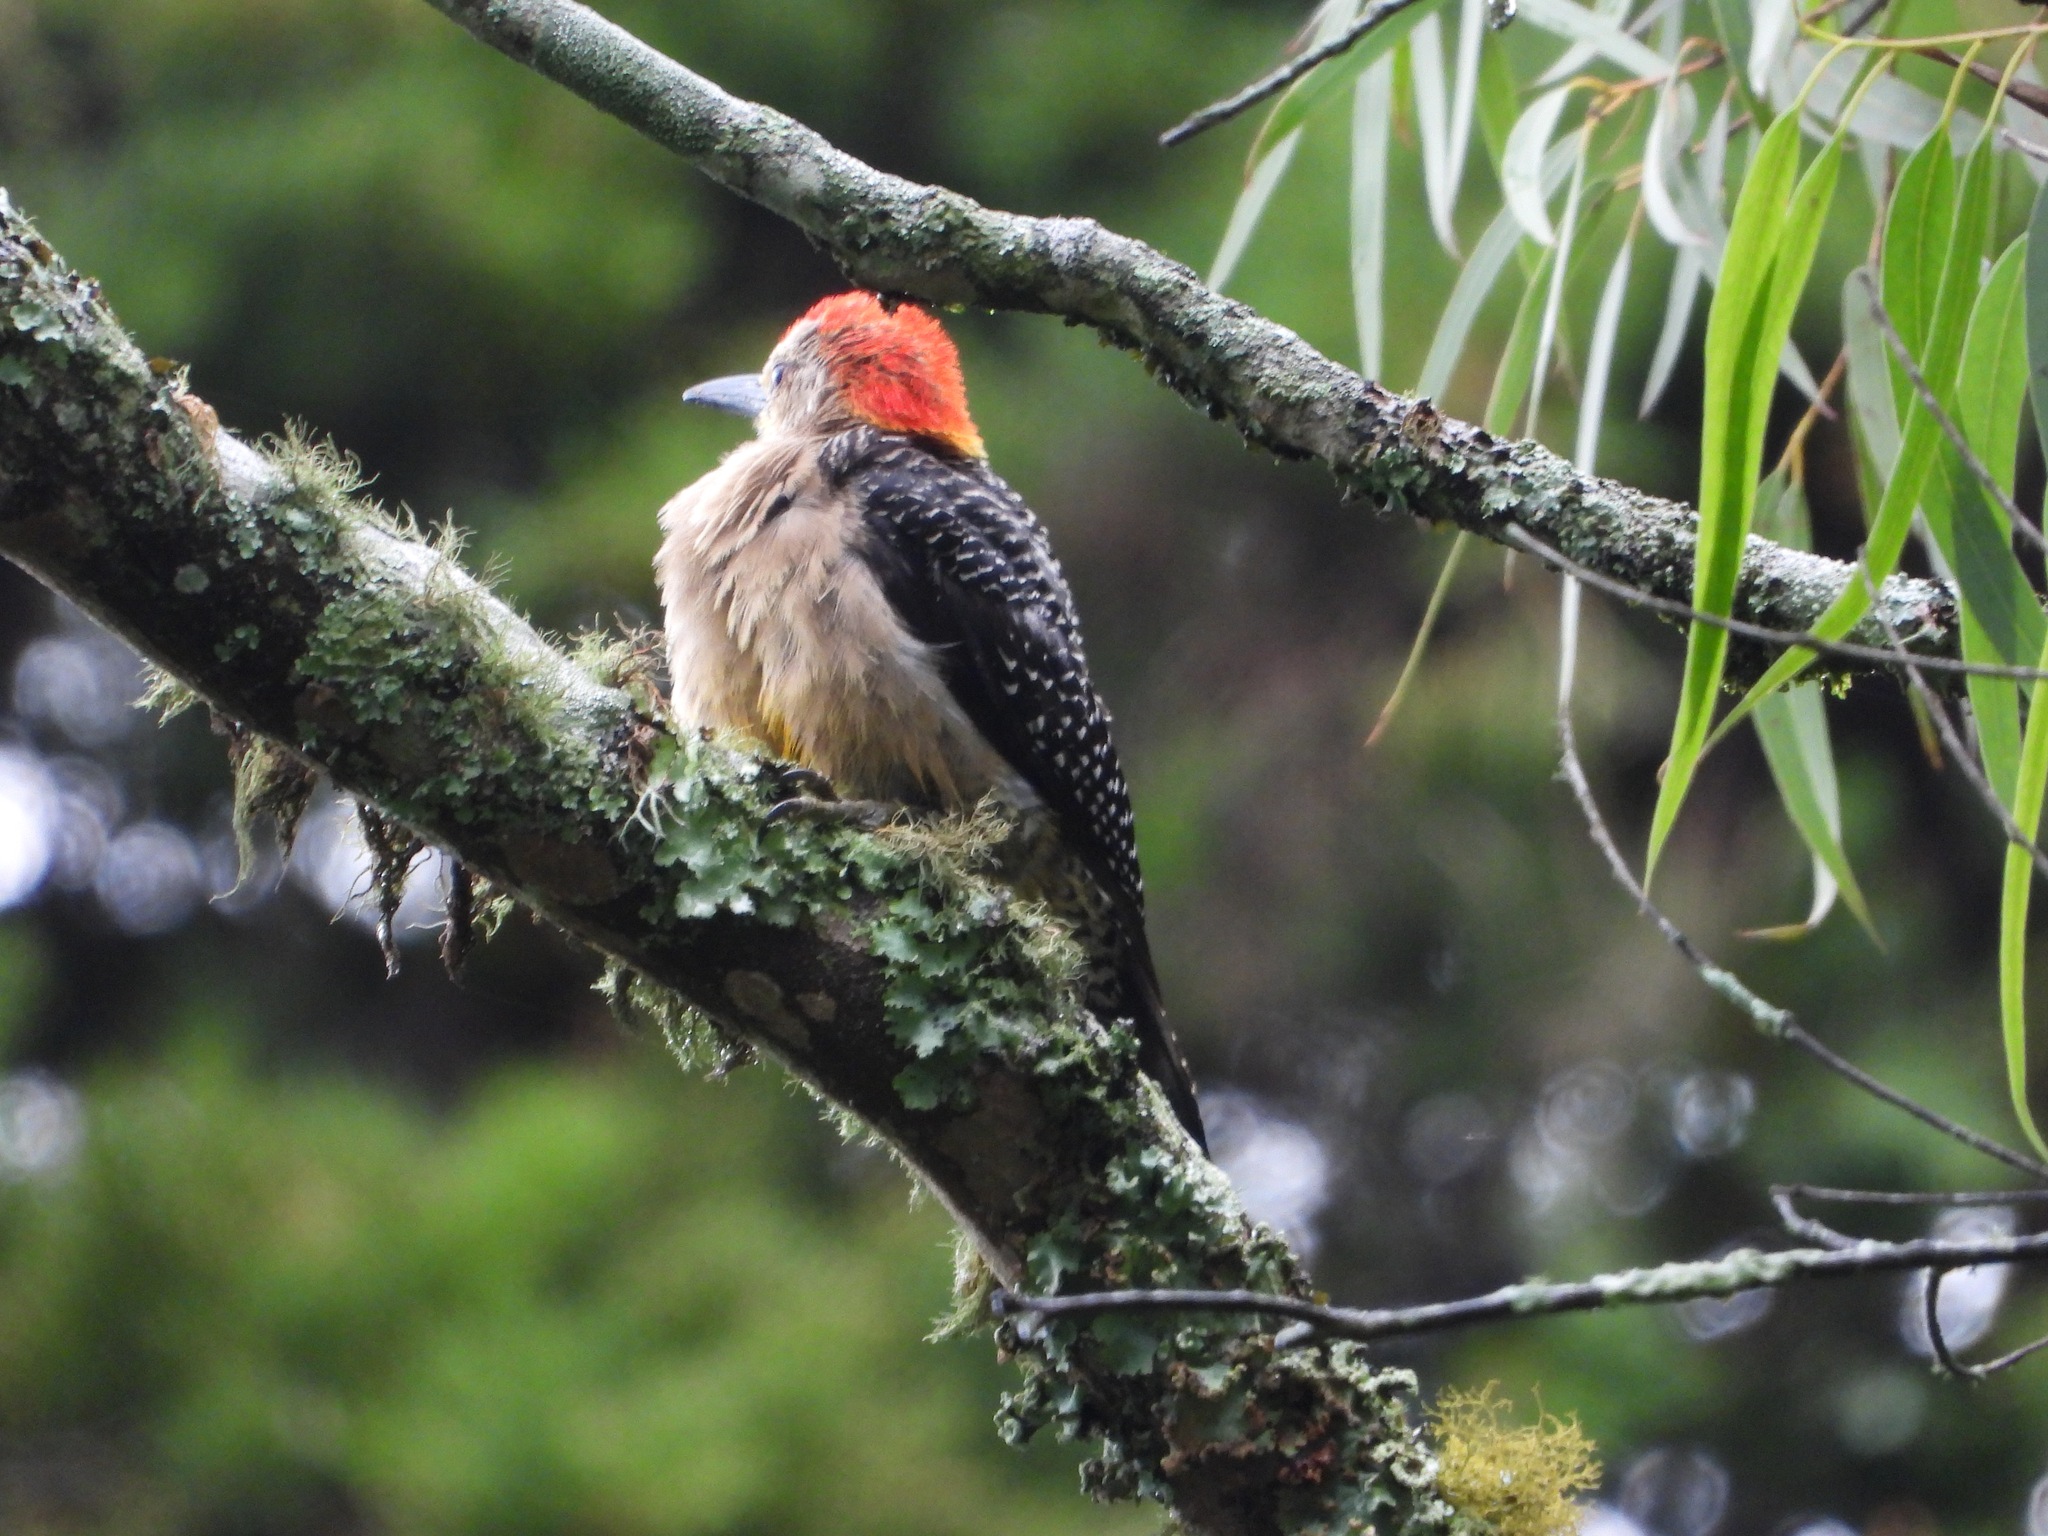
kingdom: Animalia
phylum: Chordata
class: Aves
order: Piciformes
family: Picidae
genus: Melanerpes
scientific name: Melanerpes aurifrons
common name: Golden-fronted woodpecker
